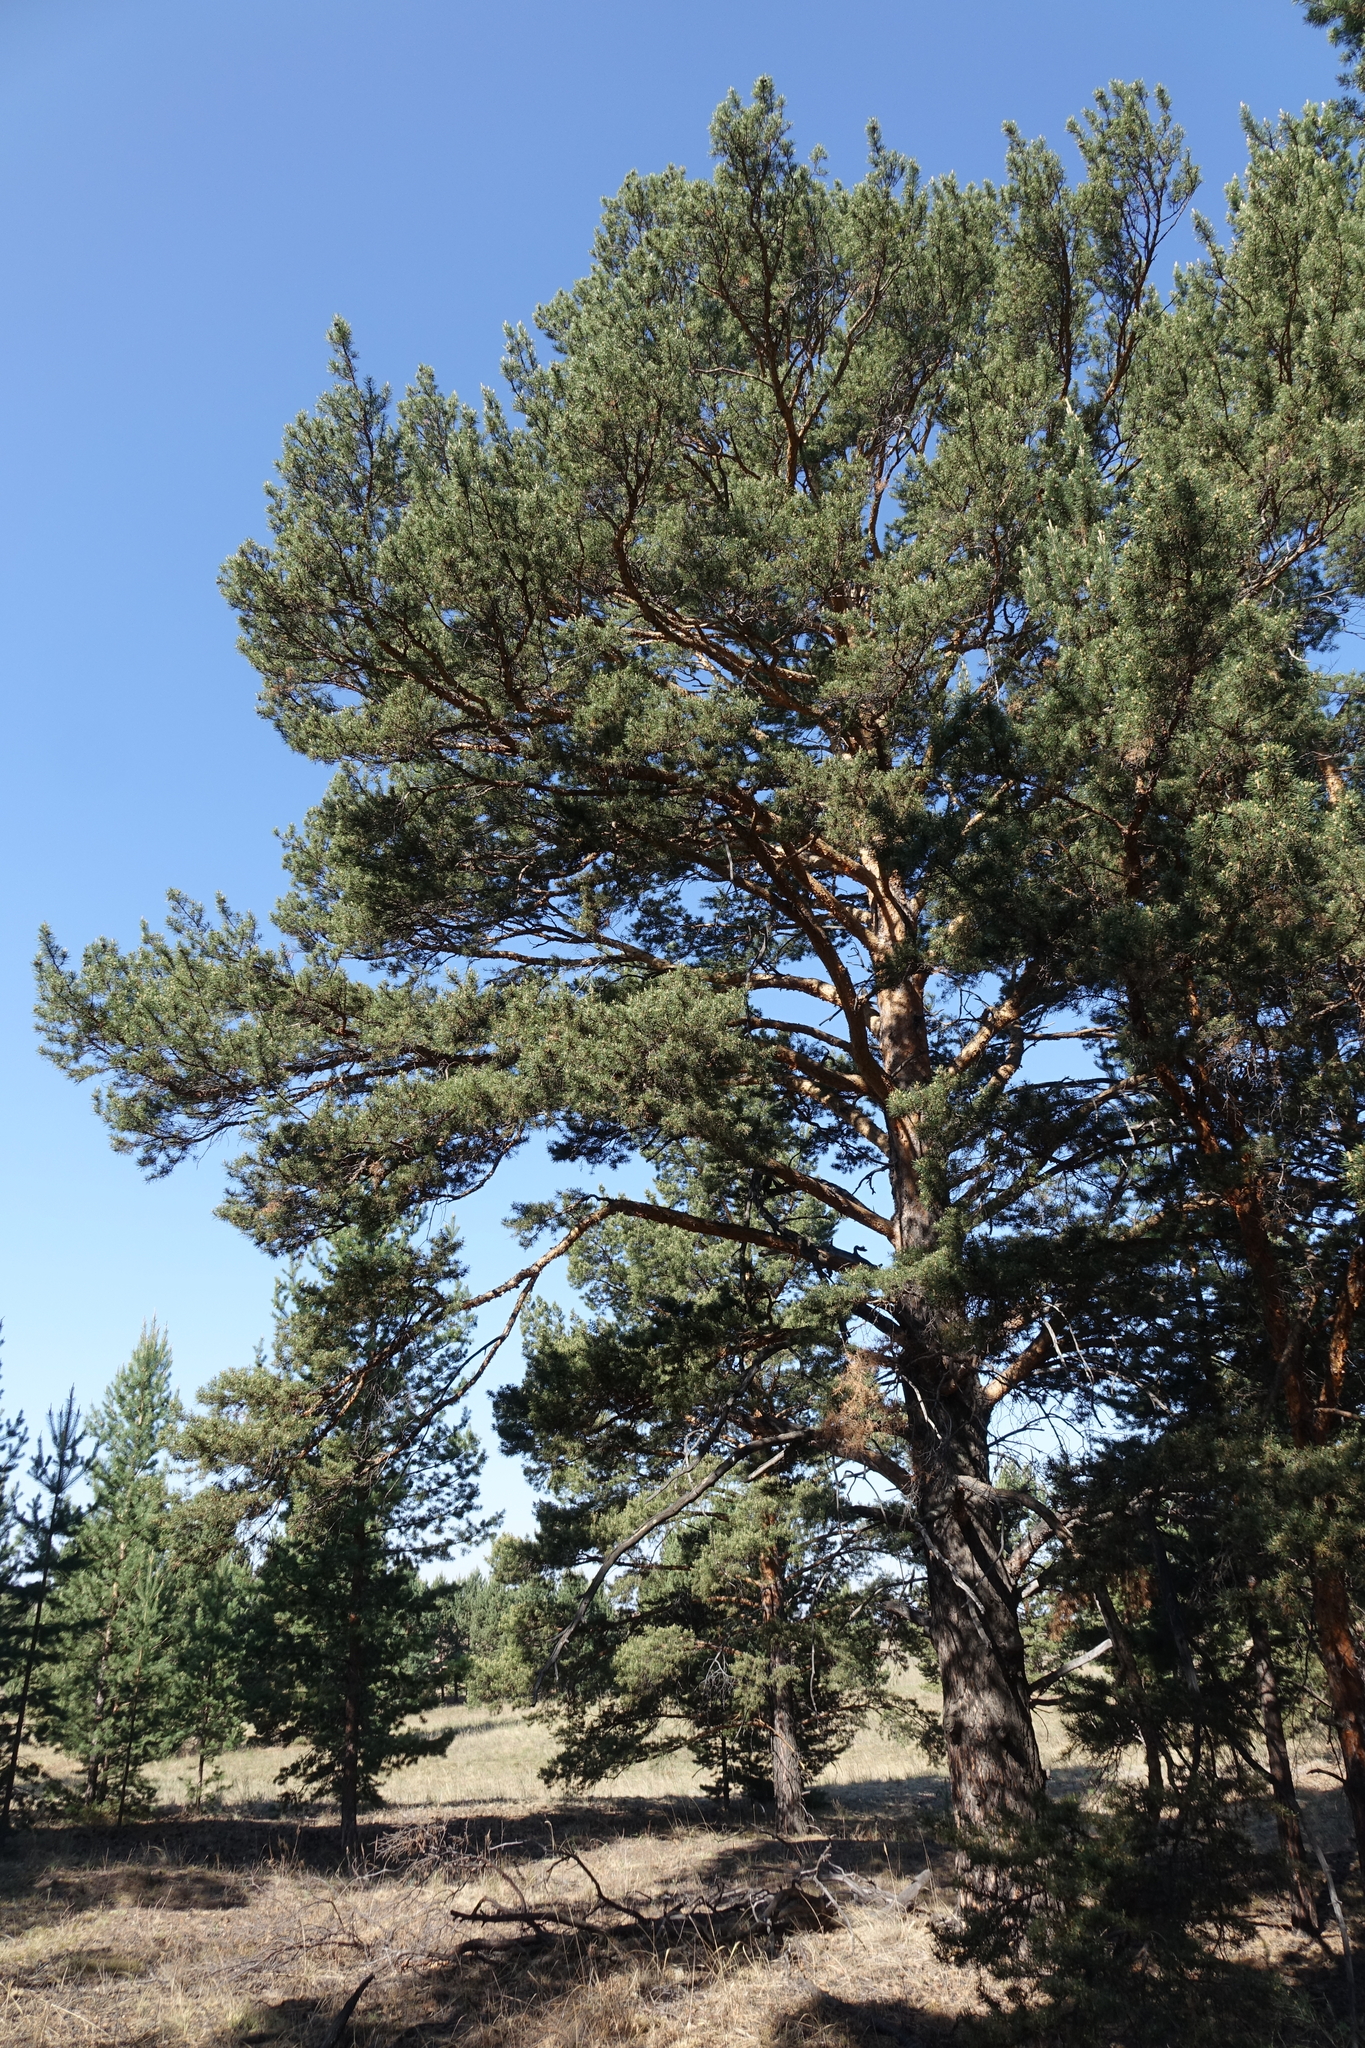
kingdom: Plantae
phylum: Tracheophyta
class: Pinopsida
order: Pinales
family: Pinaceae
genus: Pinus
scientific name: Pinus sylvestris
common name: Scots pine
